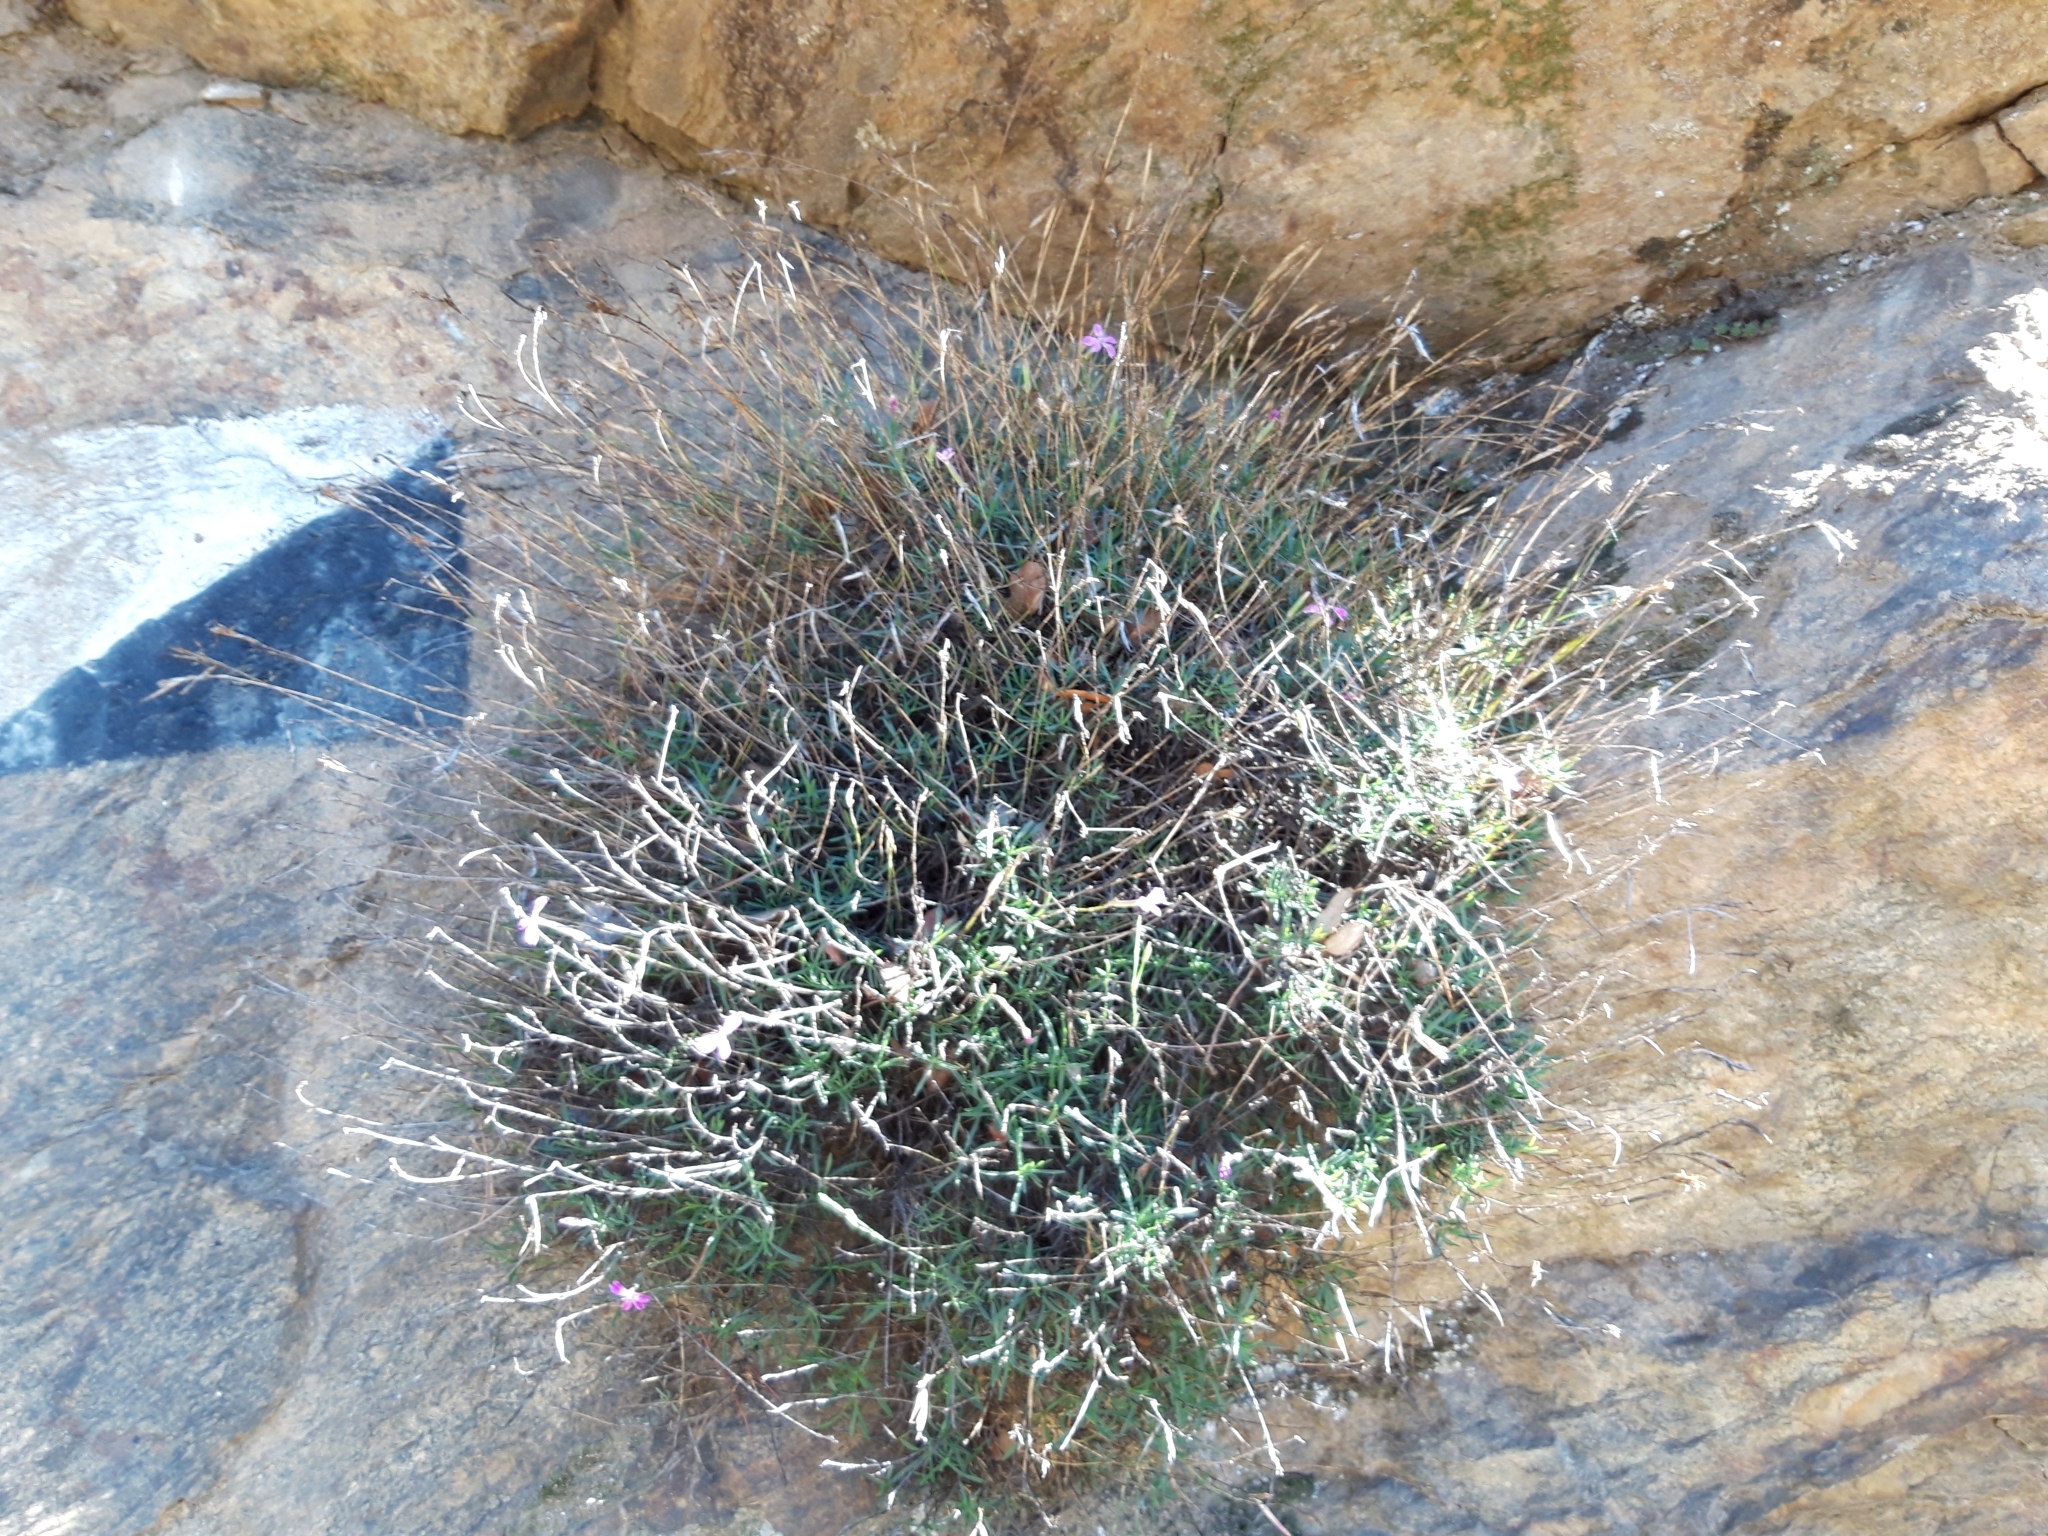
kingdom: Plantae
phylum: Tracheophyta
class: Magnoliopsida
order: Caryophyllales
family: Caryophyllaceae
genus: Dianthus
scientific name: Dianthus lusitanus
